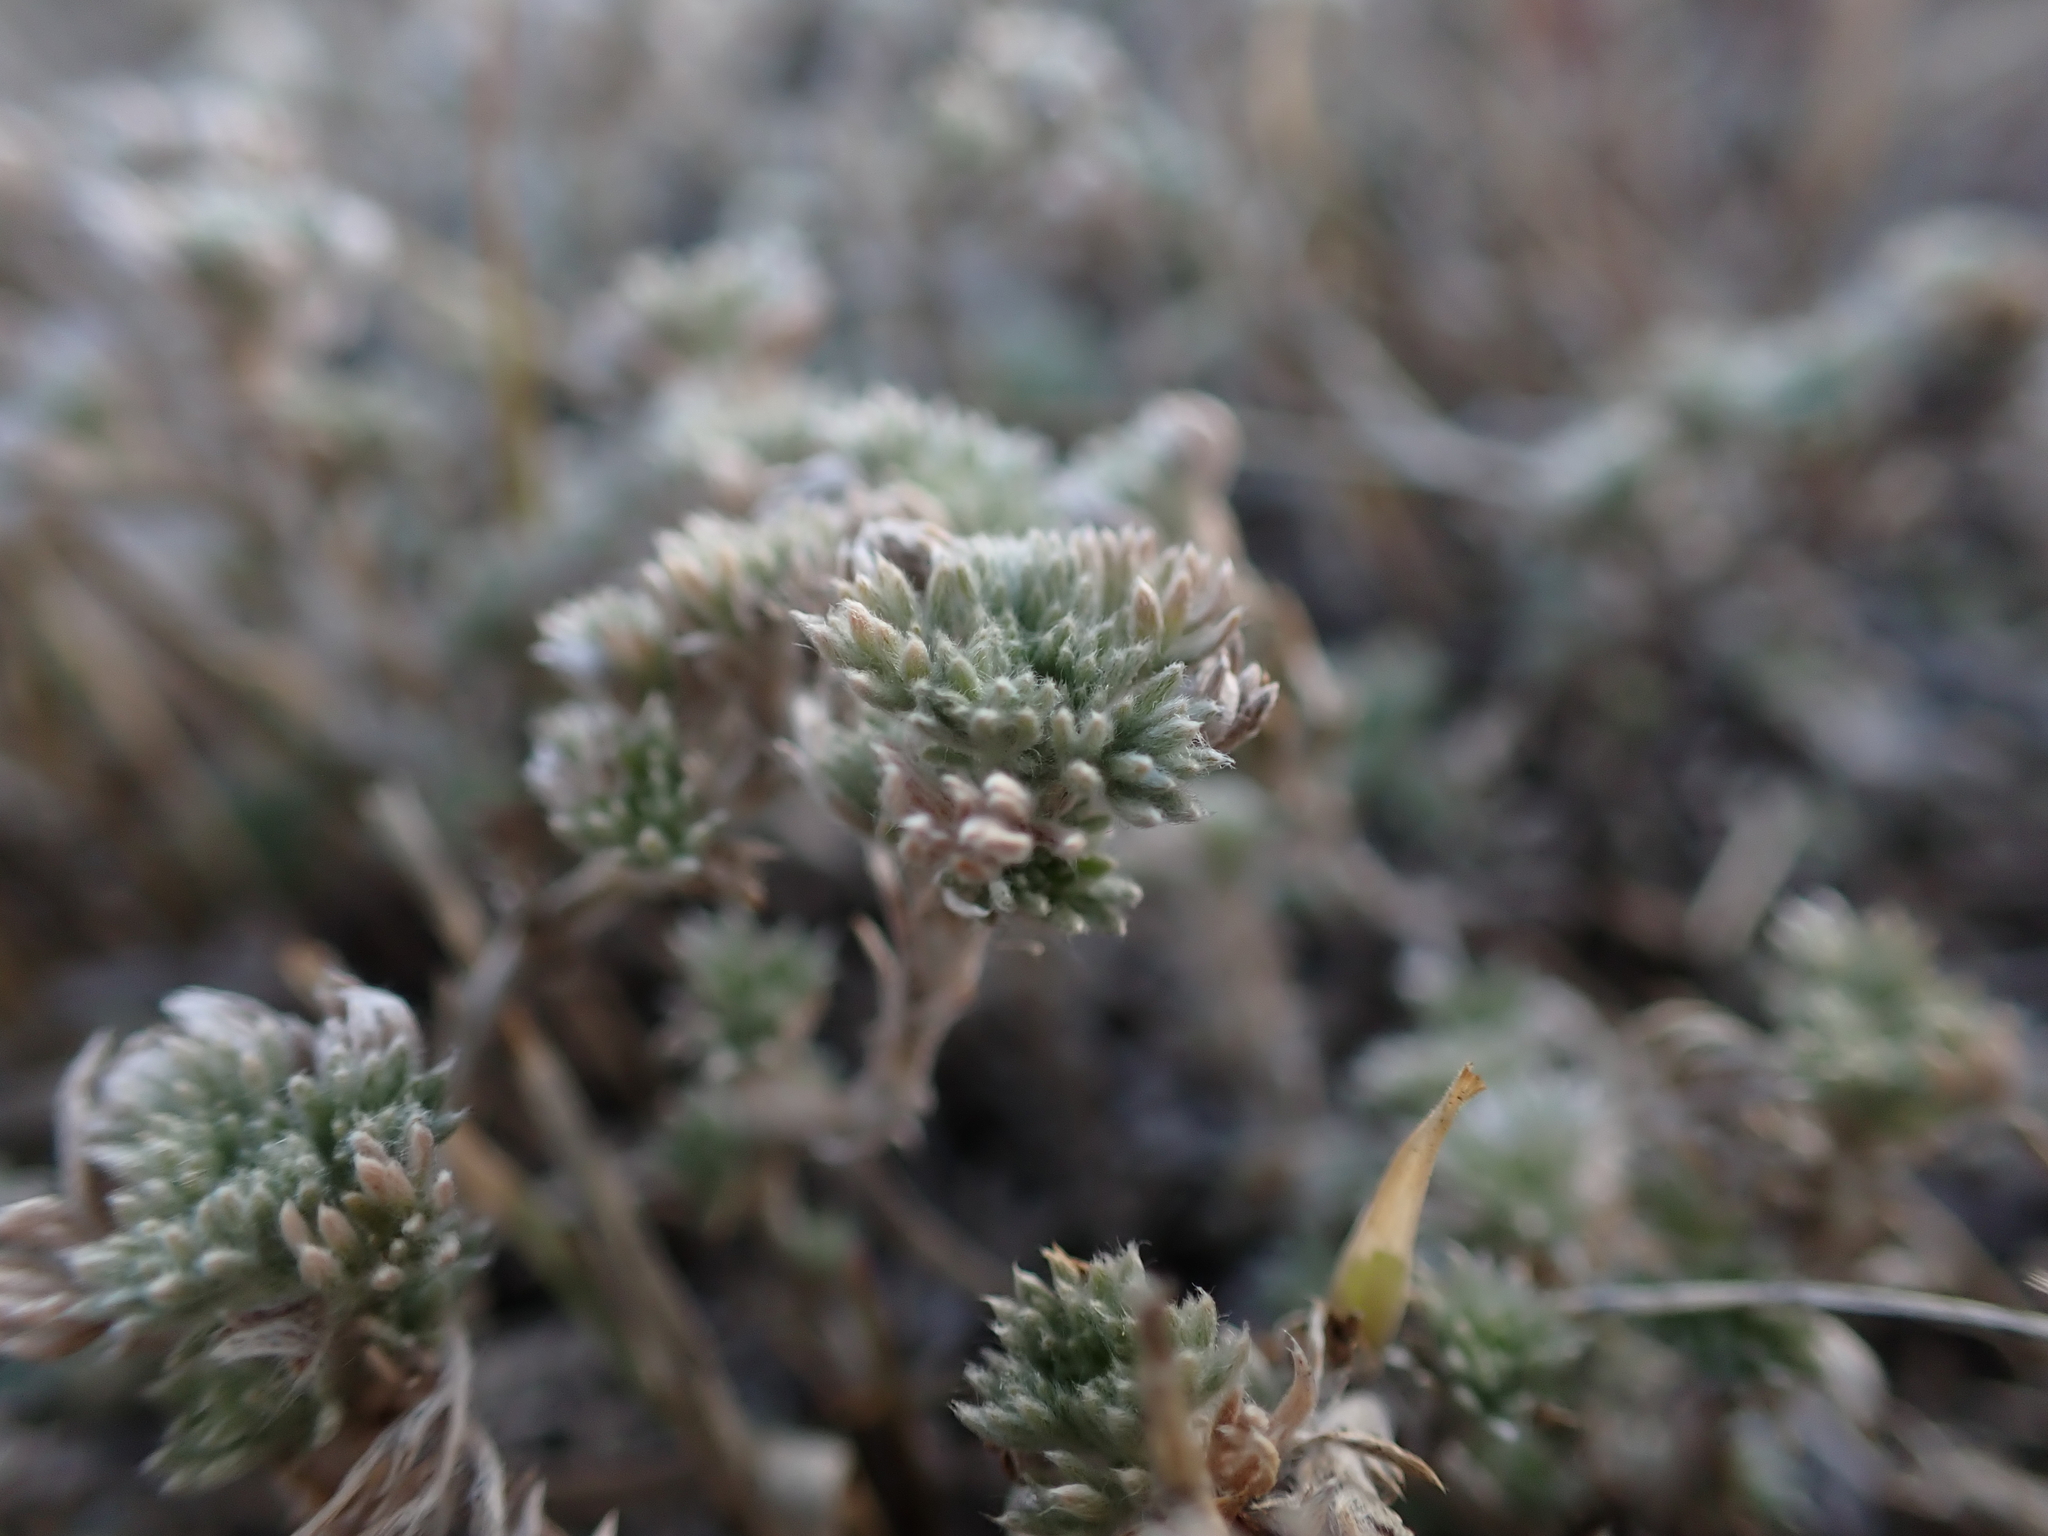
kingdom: Plantae
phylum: Tracheophyta
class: Magnoliopsida
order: Asterales
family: Asteraceae
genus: Artemisia
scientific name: Artemisia frigida
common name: Prairie sagewort
